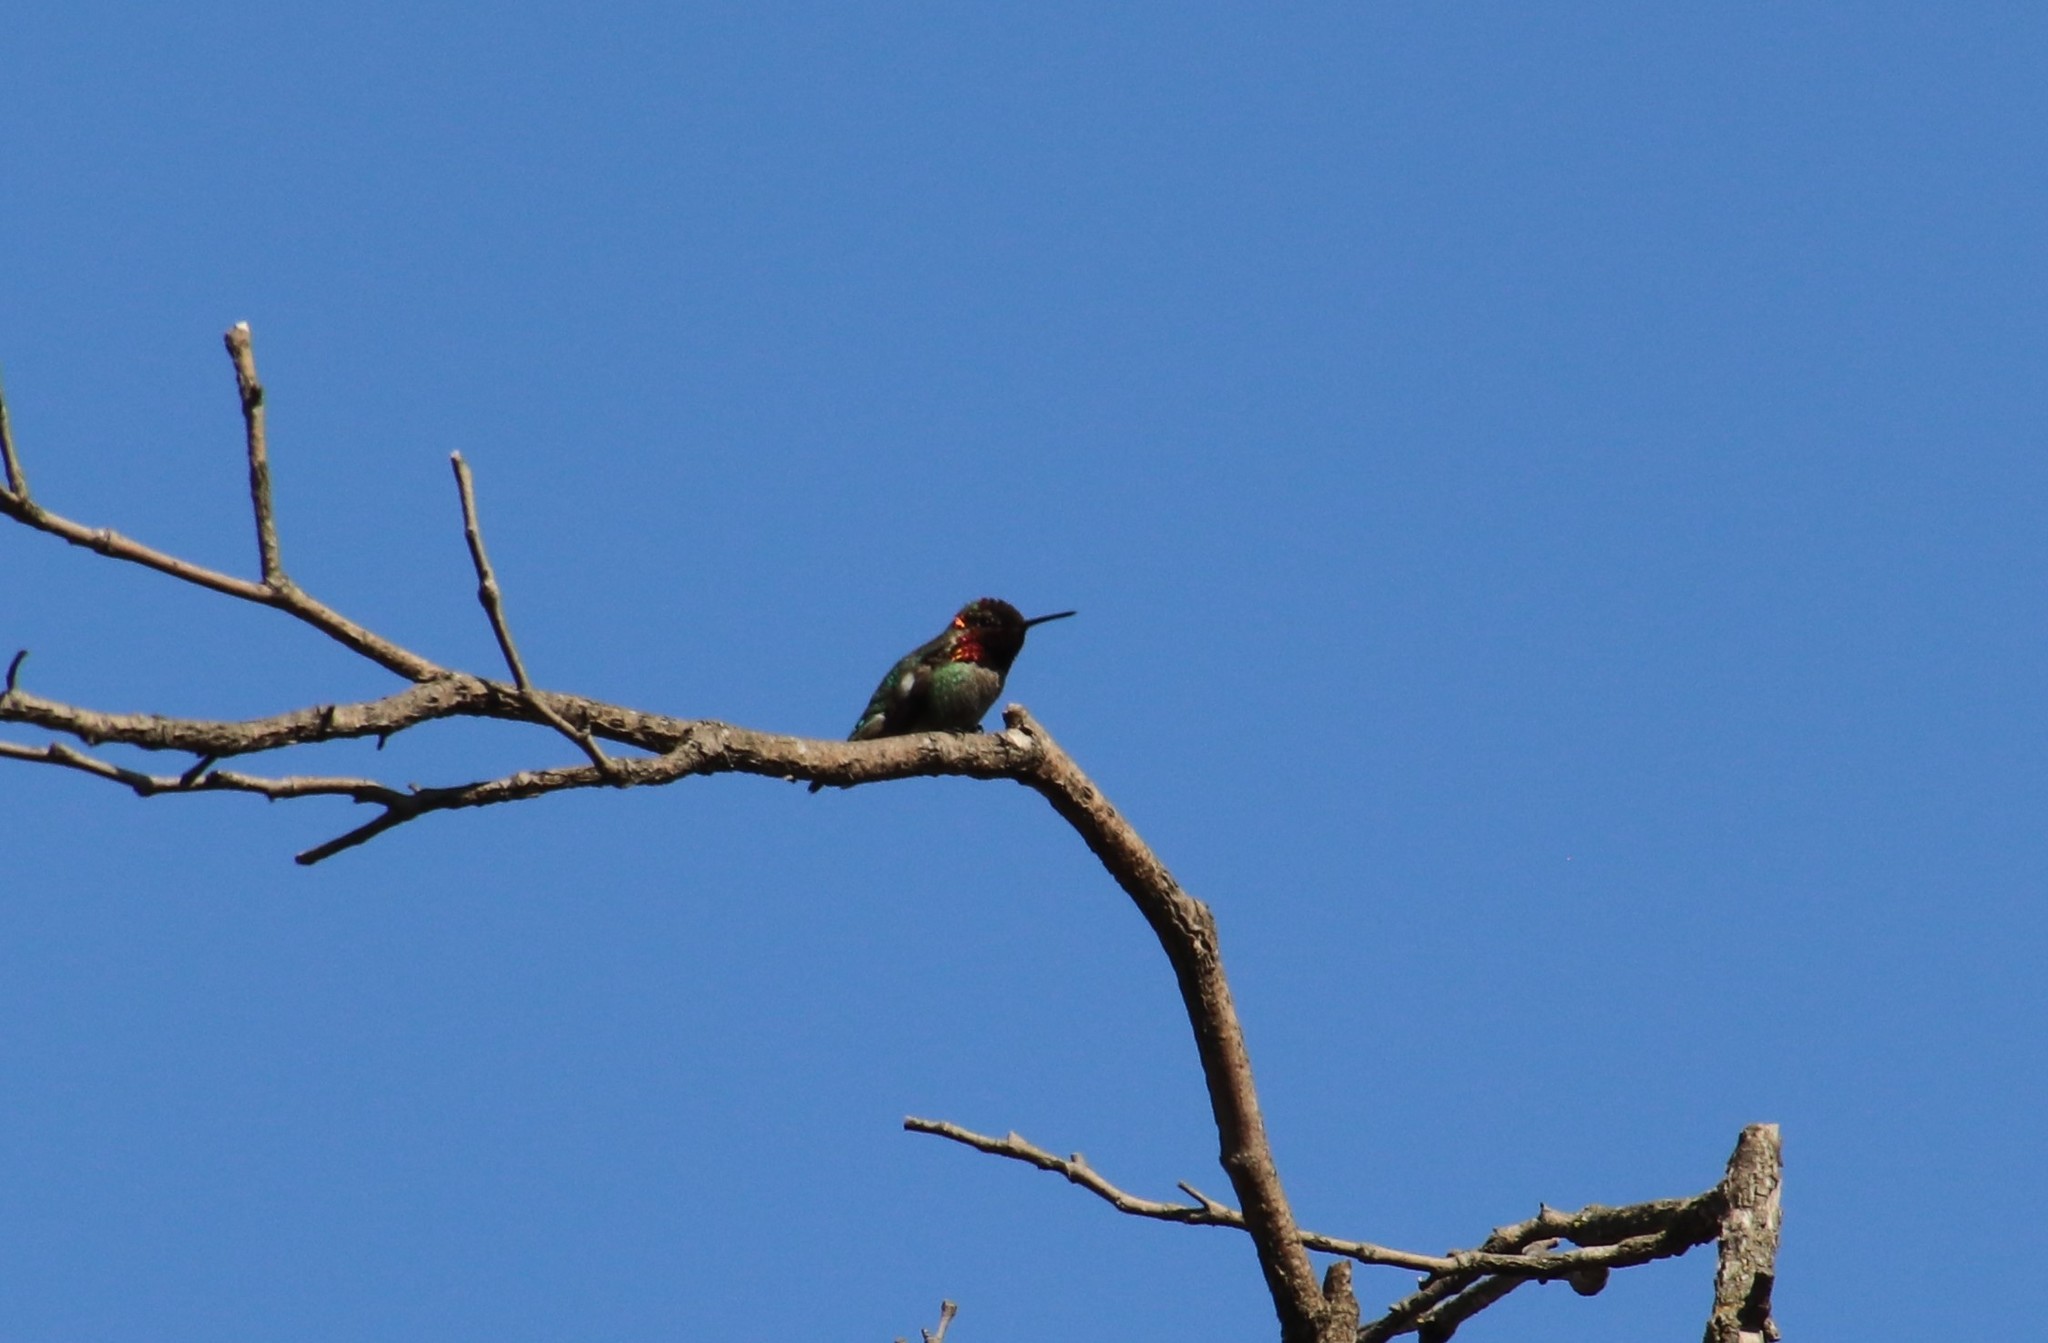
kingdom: Animalia
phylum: Chordata
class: Aves
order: Apodiformes
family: Trochilidae
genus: Calypte
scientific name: Calypte anna
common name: Anna's hummingbird
